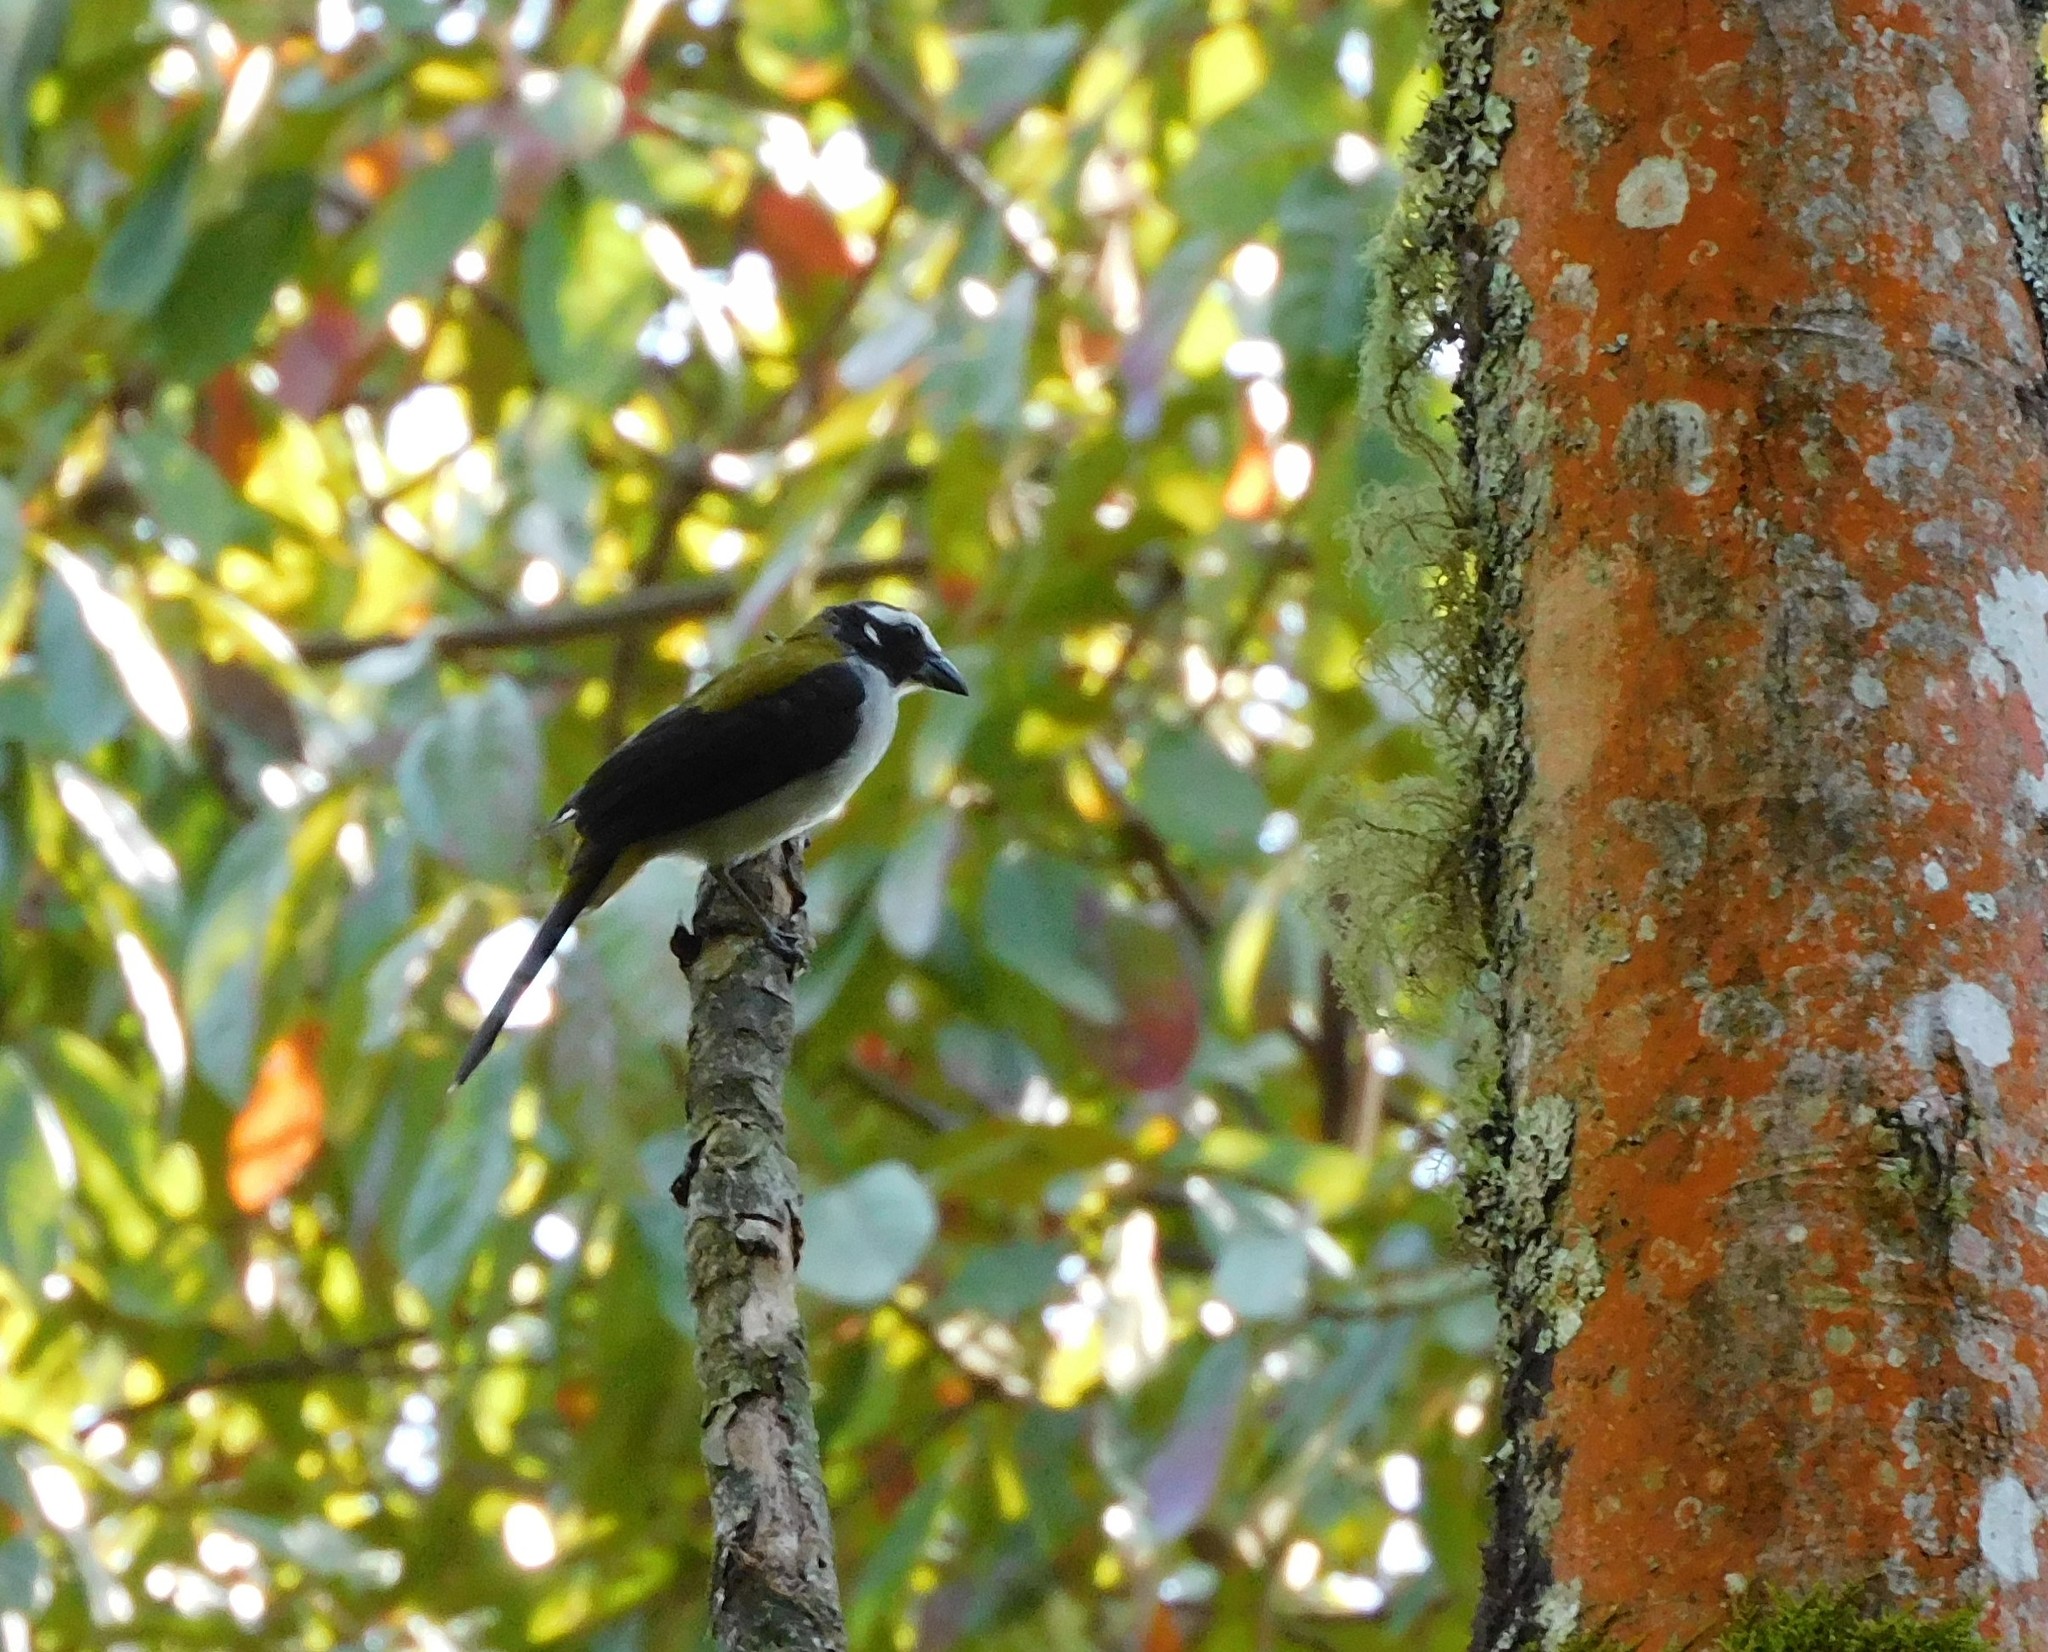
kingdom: Animalia
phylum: Chordata
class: Aves
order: Passeriformes
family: Thraupidae
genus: Saltator
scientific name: Saltator atripennis
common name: Black-winged saltator
